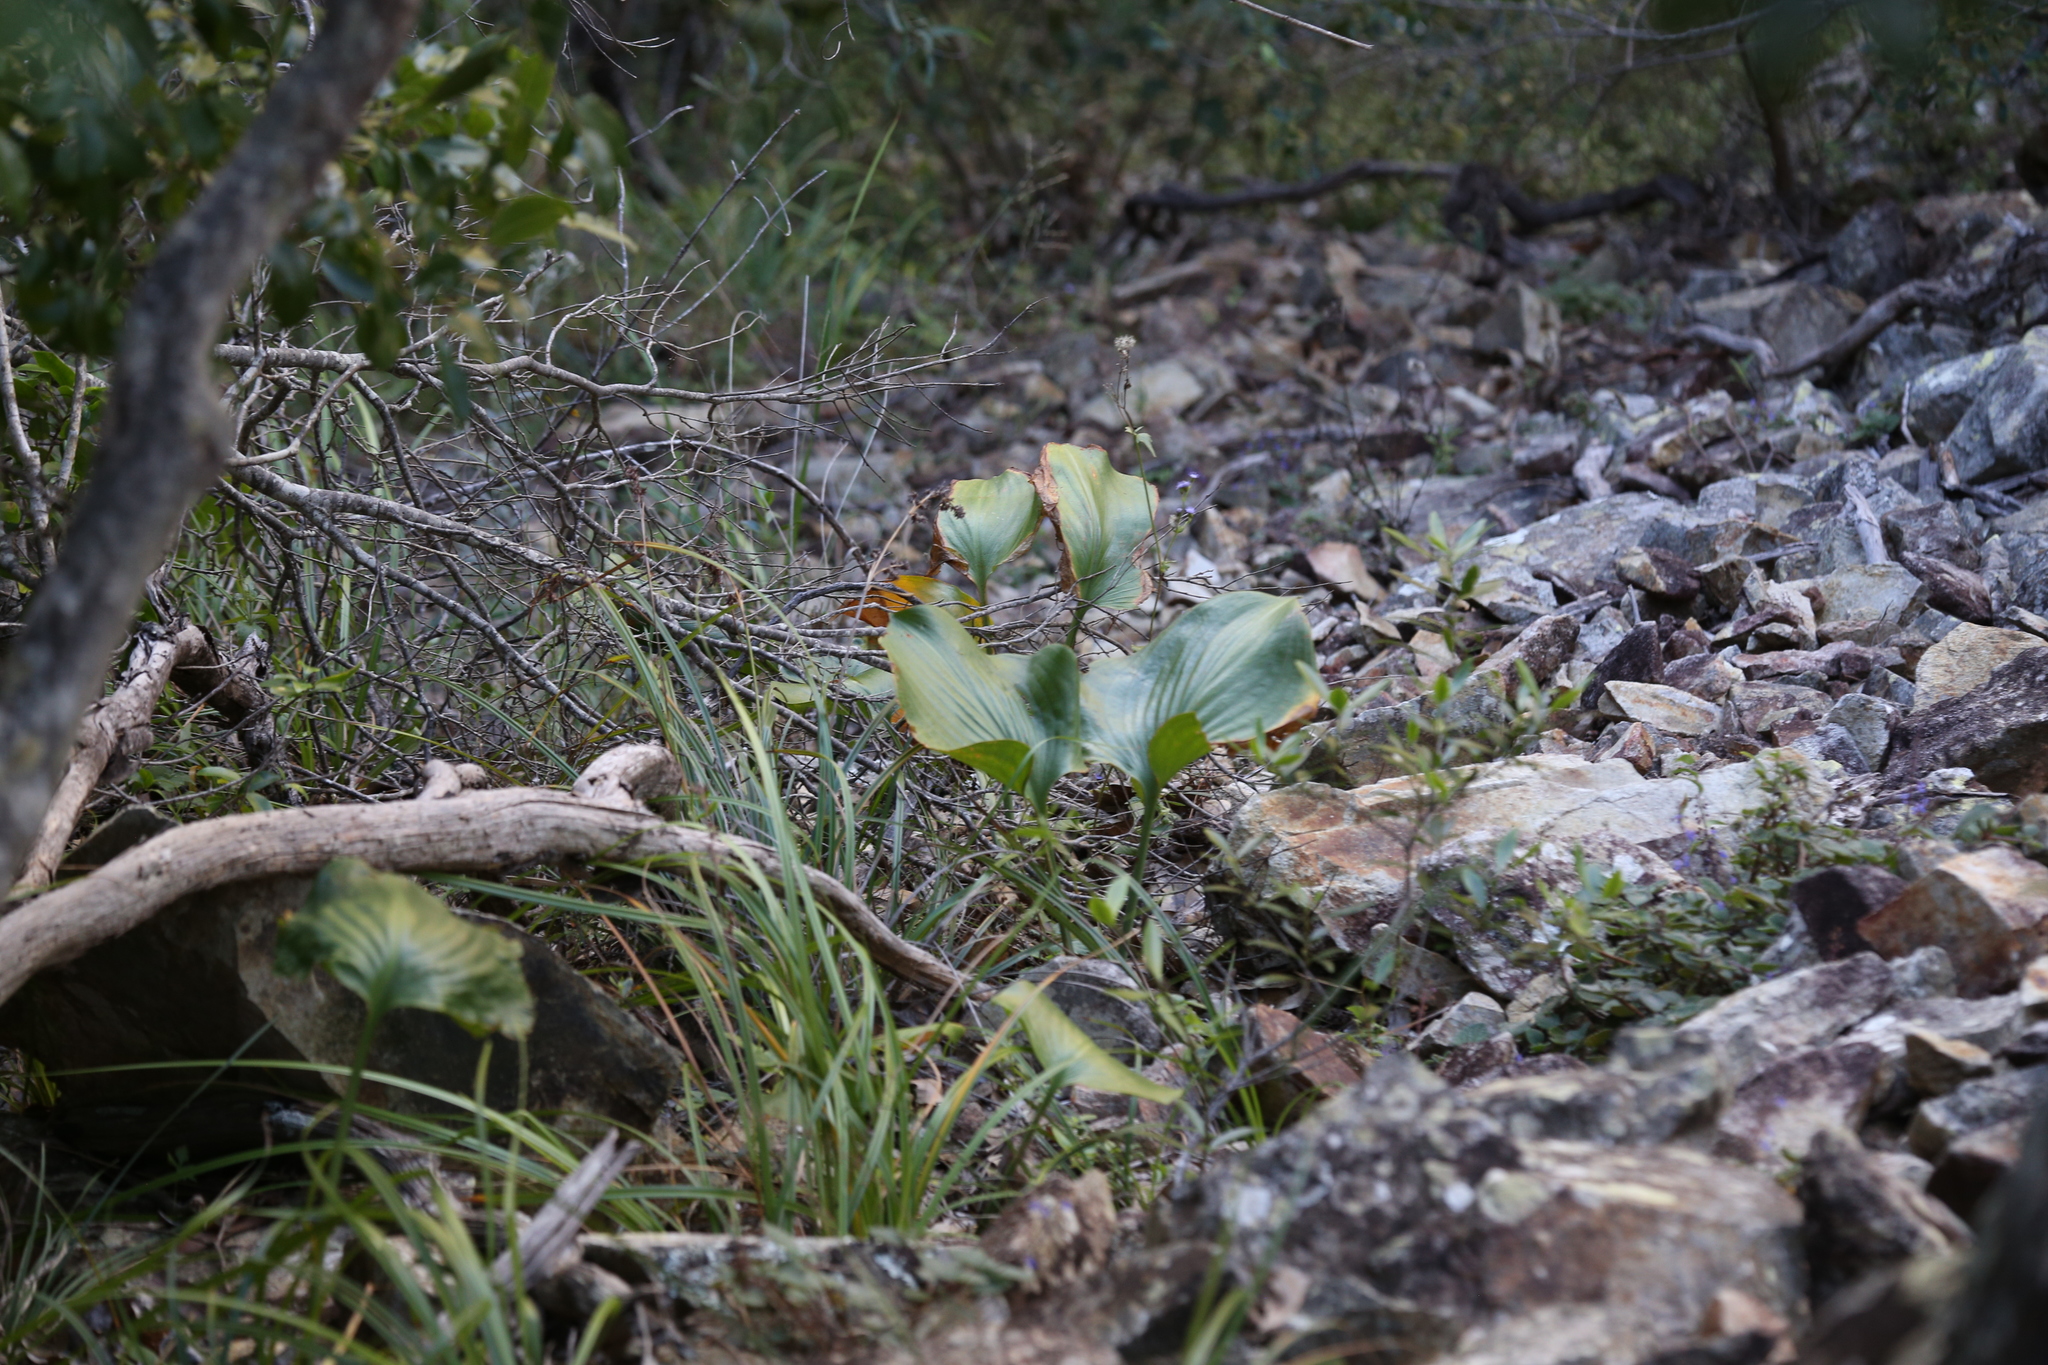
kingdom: Plantae
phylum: Tracheophyta
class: Liliopsida
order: Asparagales
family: Amaryllidaceae
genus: Proiphys
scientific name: Proiphys amboinensis
